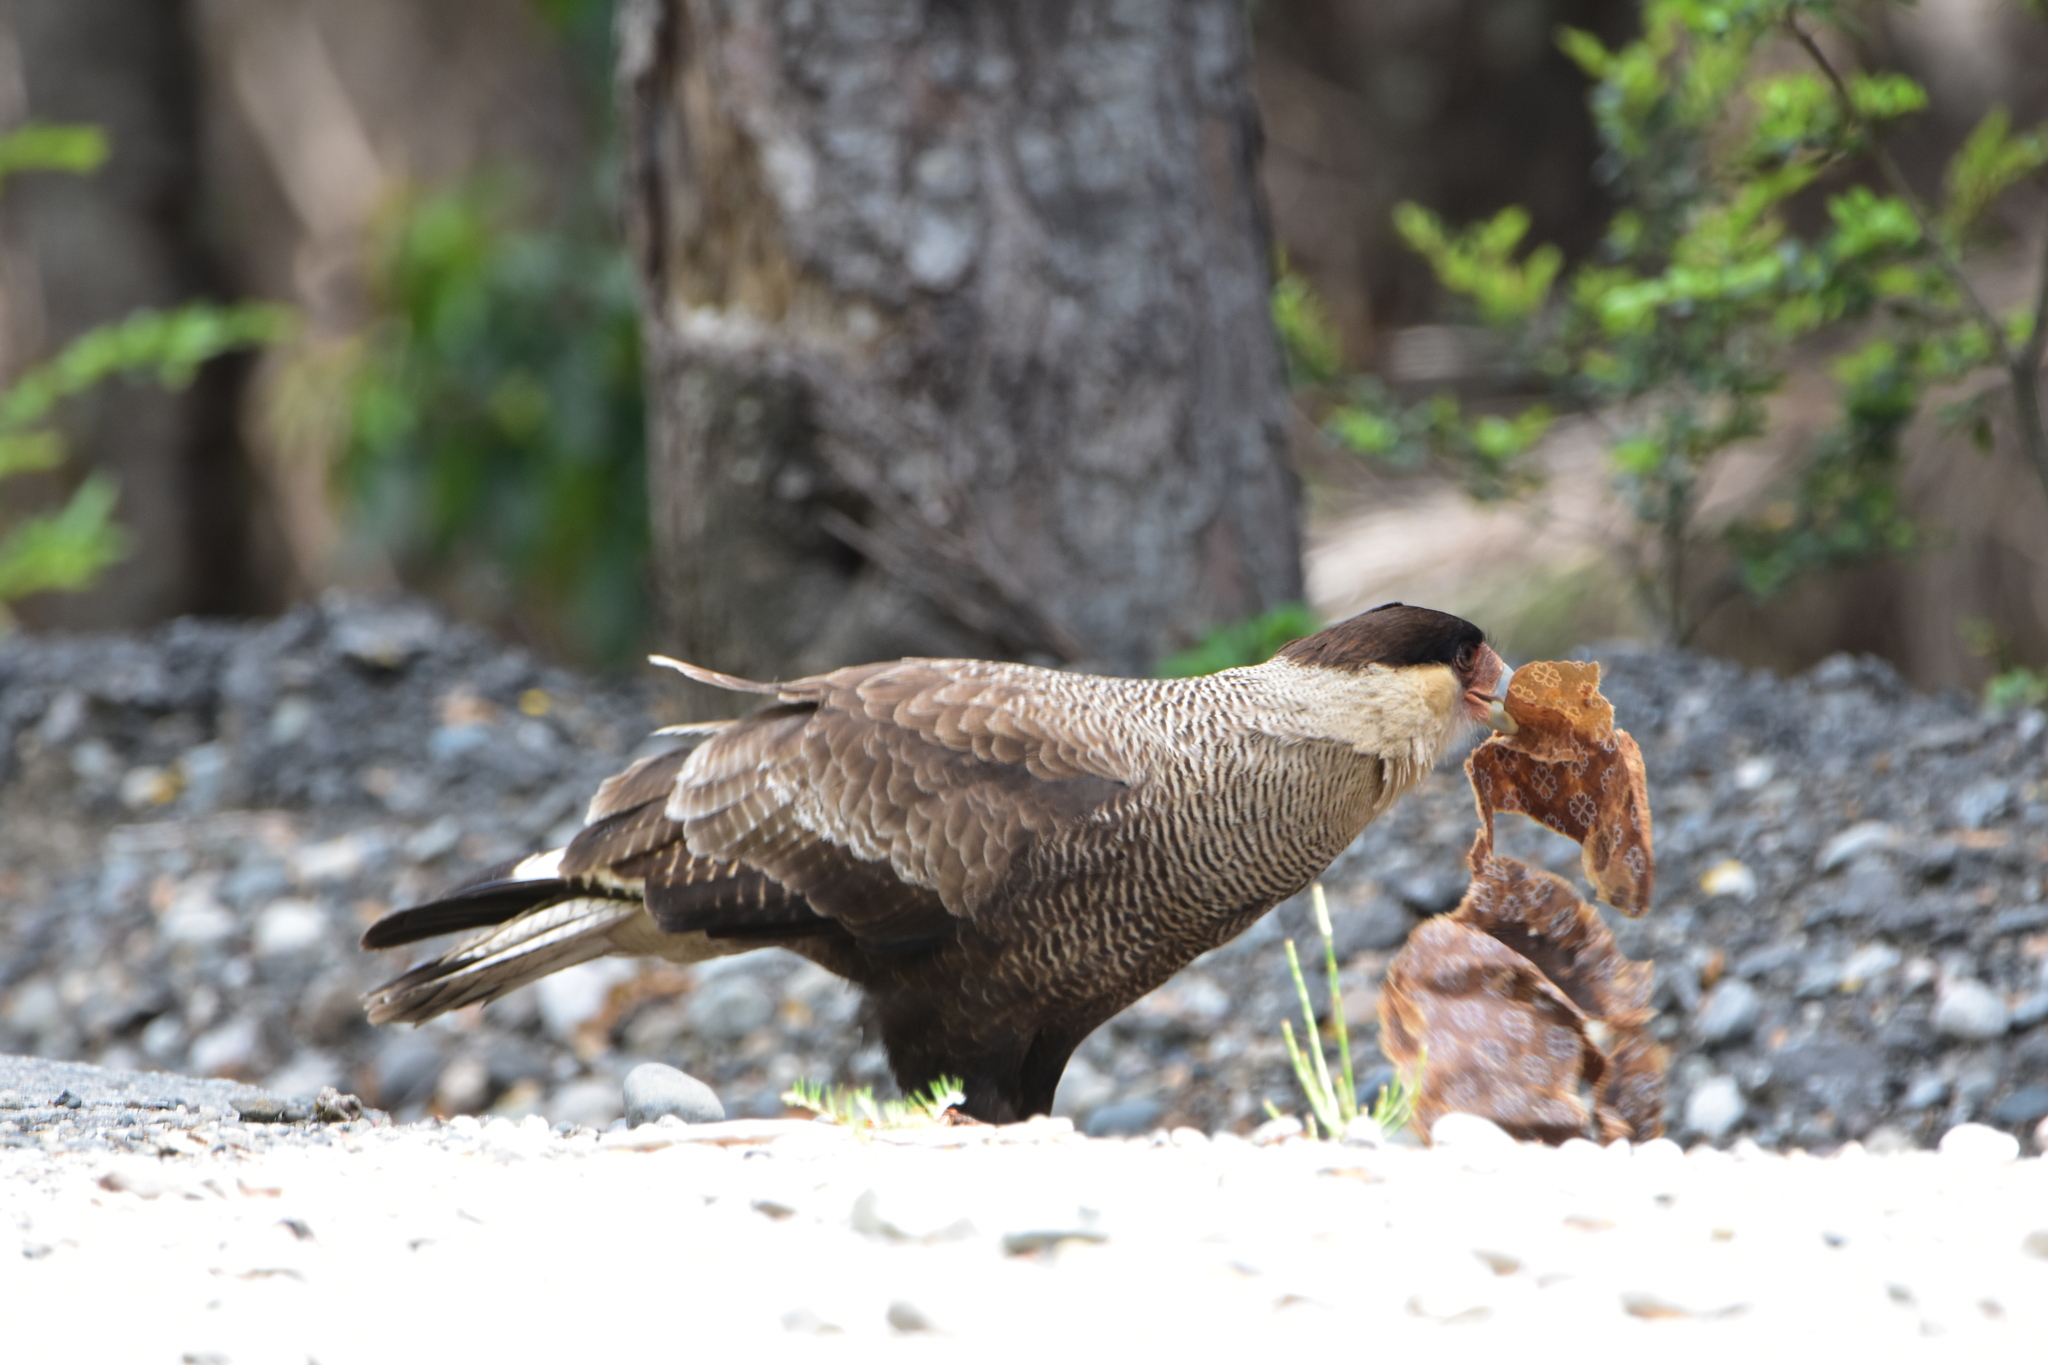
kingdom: Animalia
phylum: Chordata
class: Aves
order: Falconiformes
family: Falconidae
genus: Caracara
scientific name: Caracara plancus
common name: Southern caracara
